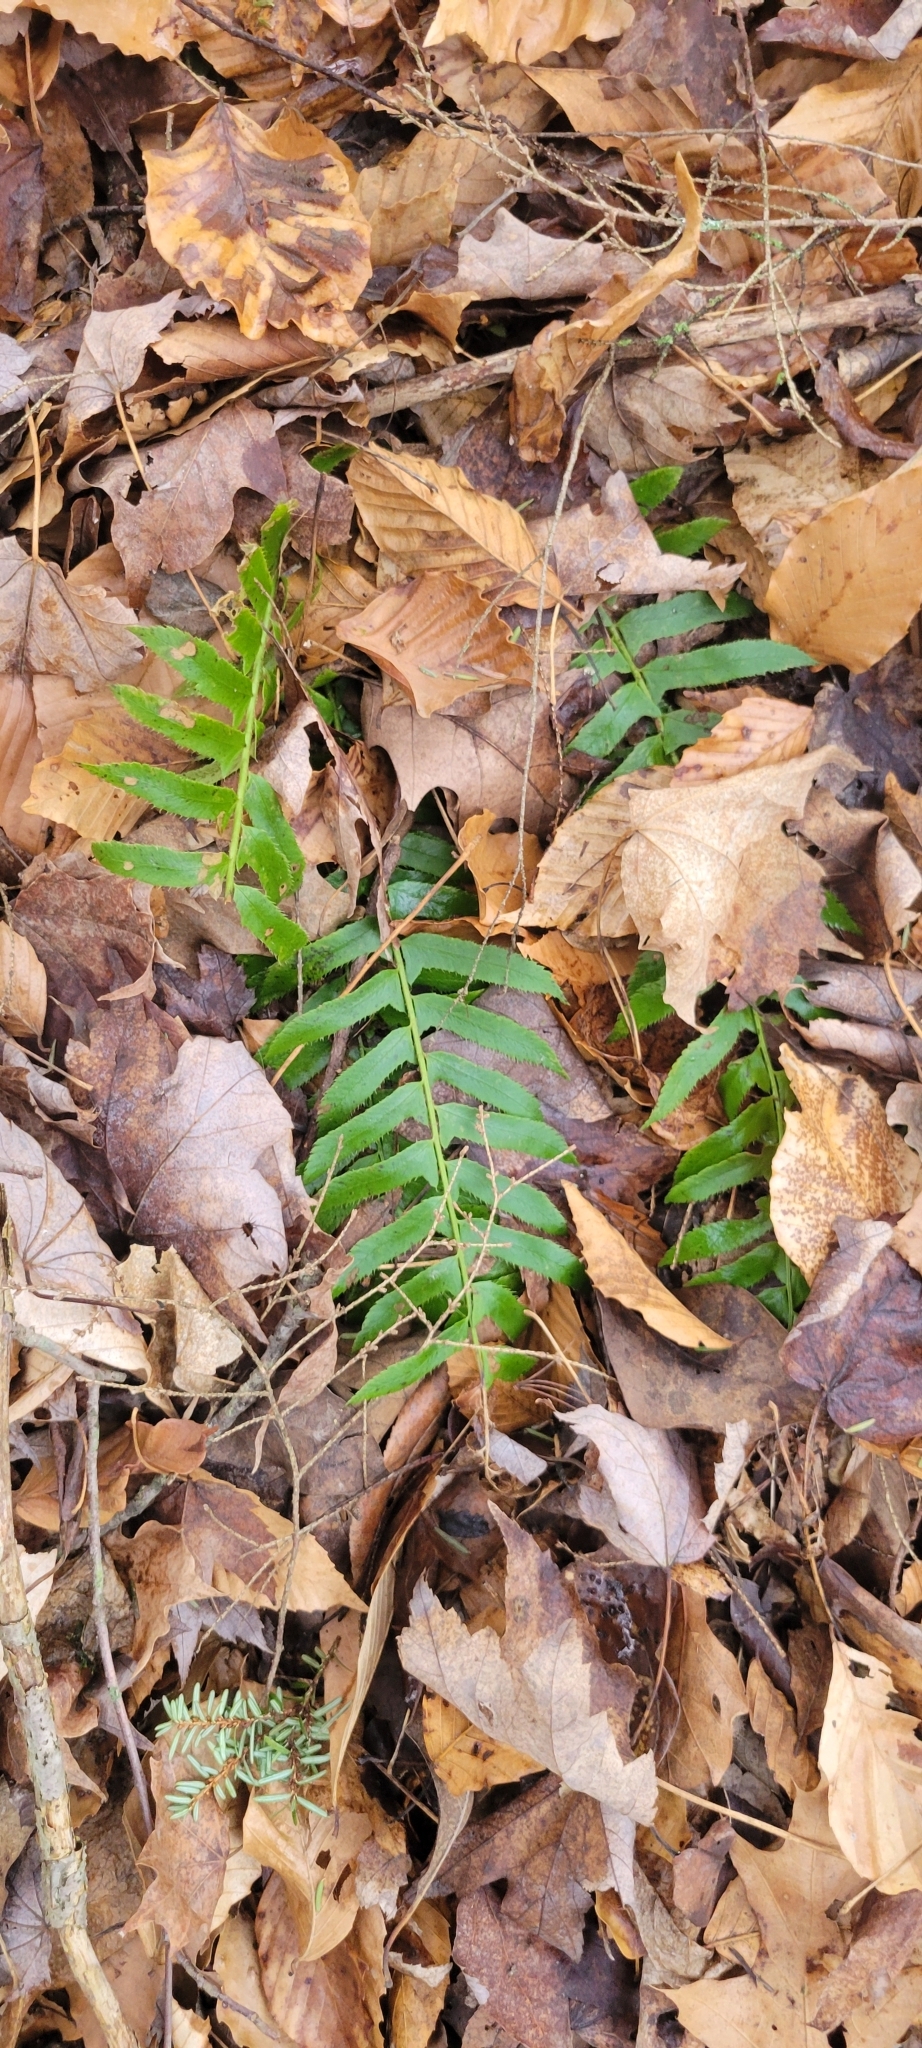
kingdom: Plantae
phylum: Tracheophyta
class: Polypodiopsida
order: Polypodiales
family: Dryopteridaceae
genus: Polystichum
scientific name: Polystichum acrostichoides
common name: Christmas fern
